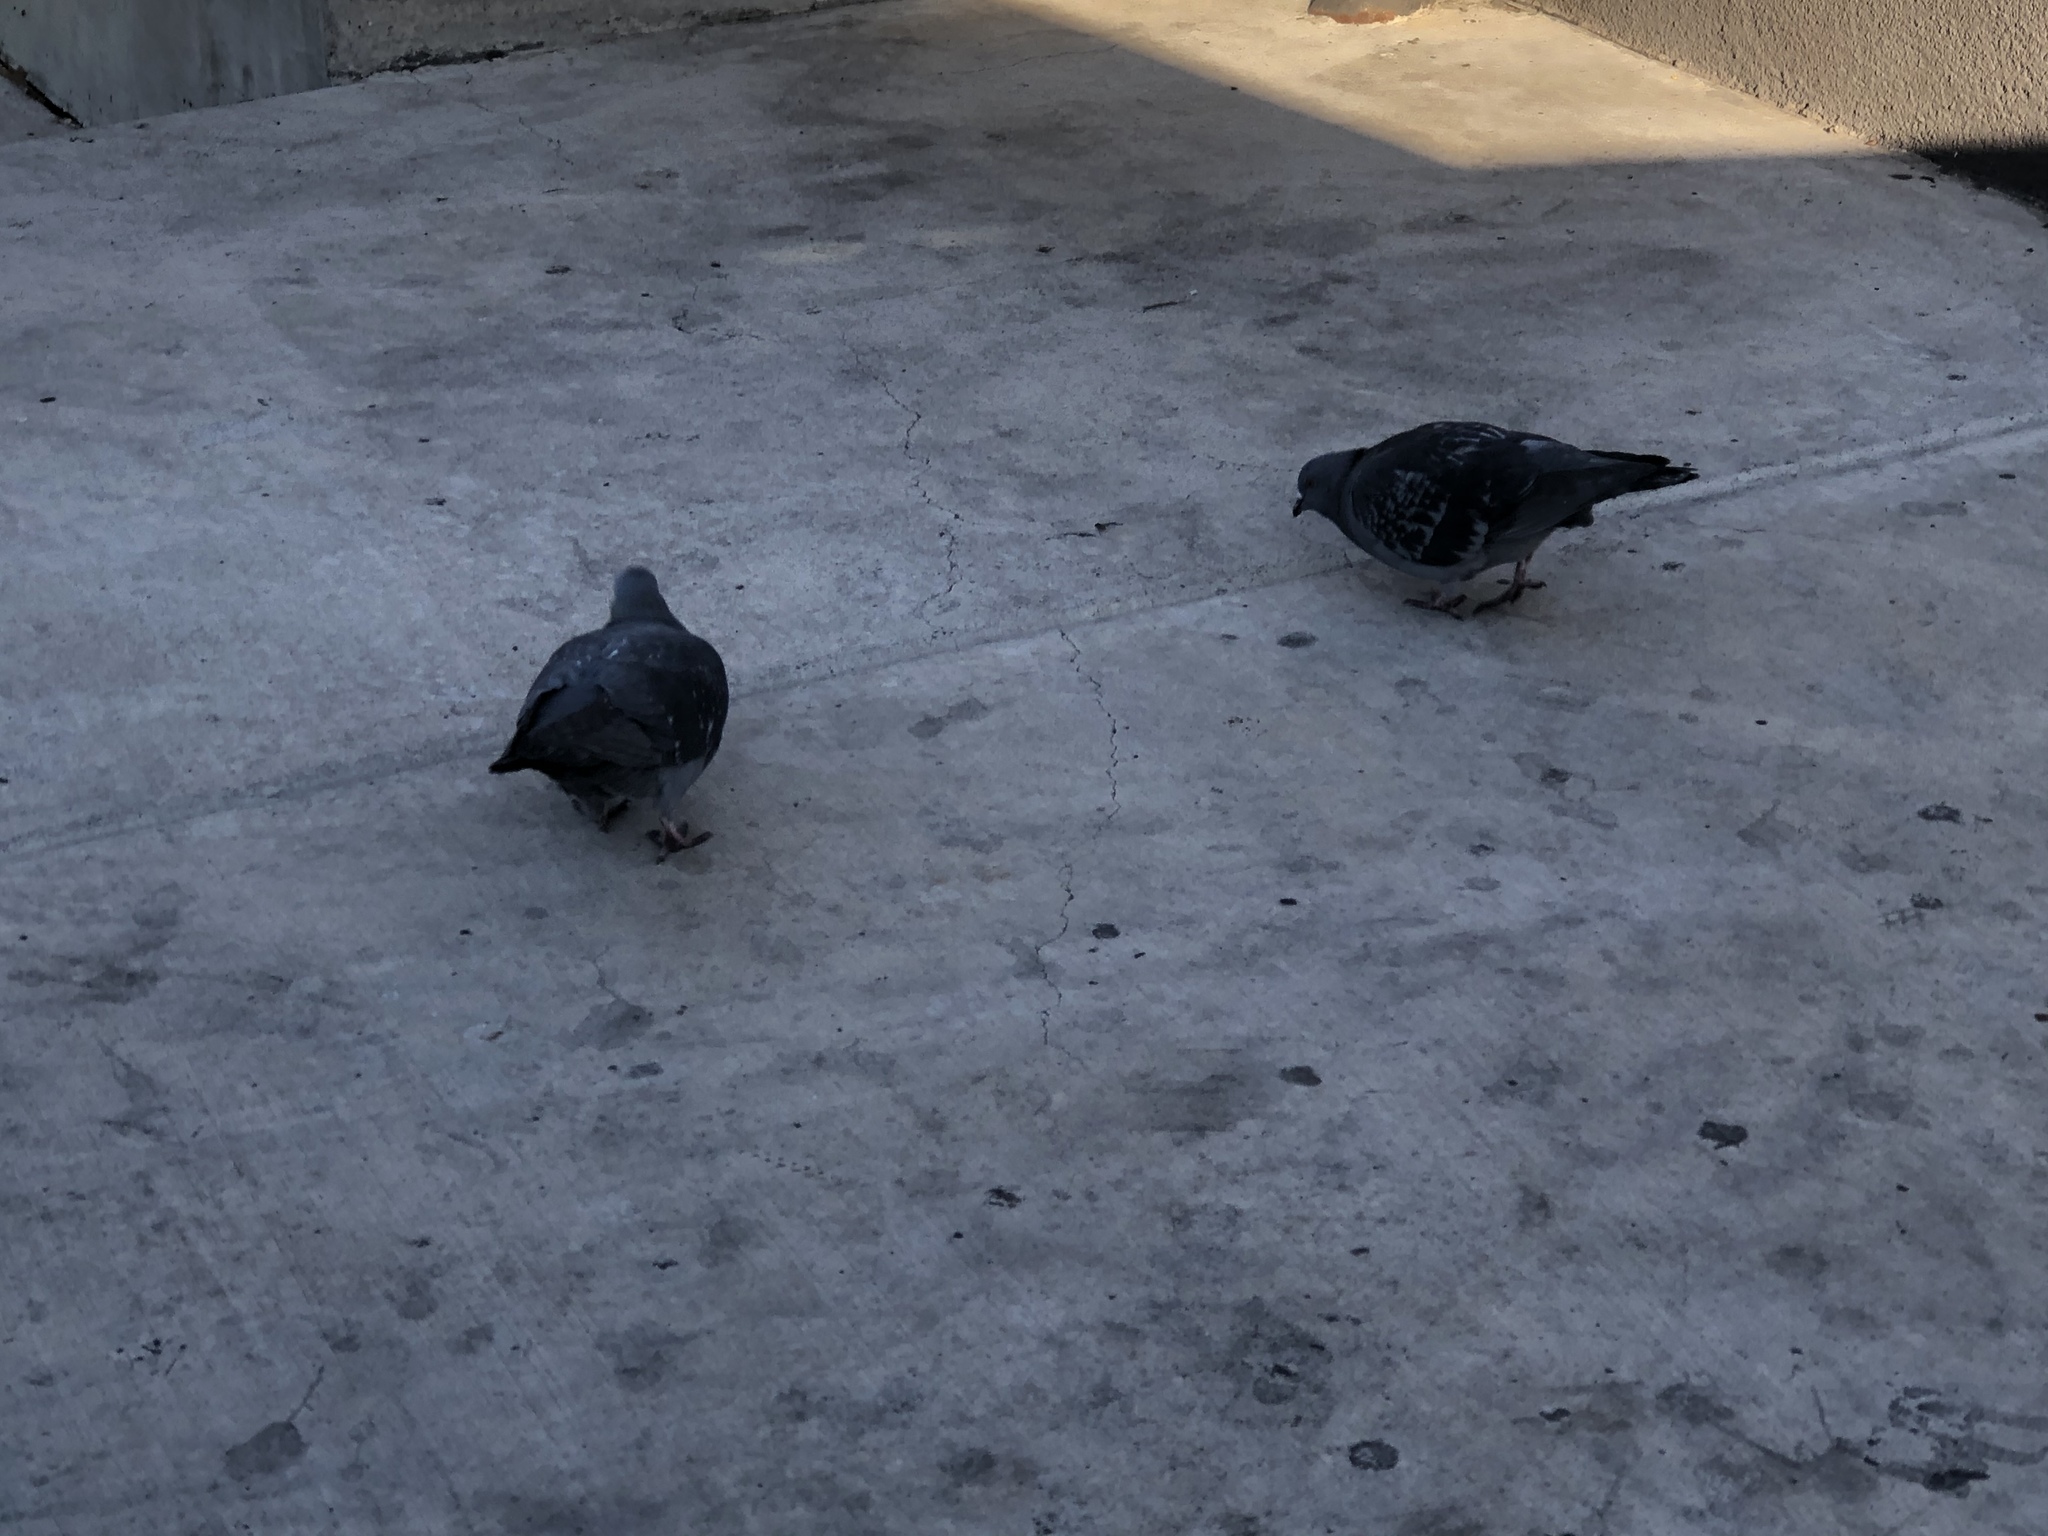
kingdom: Animalia
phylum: Chordata
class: Aves
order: Columbiformes
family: Columbidae
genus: Columba
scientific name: Columba livia
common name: Rock pigeon
